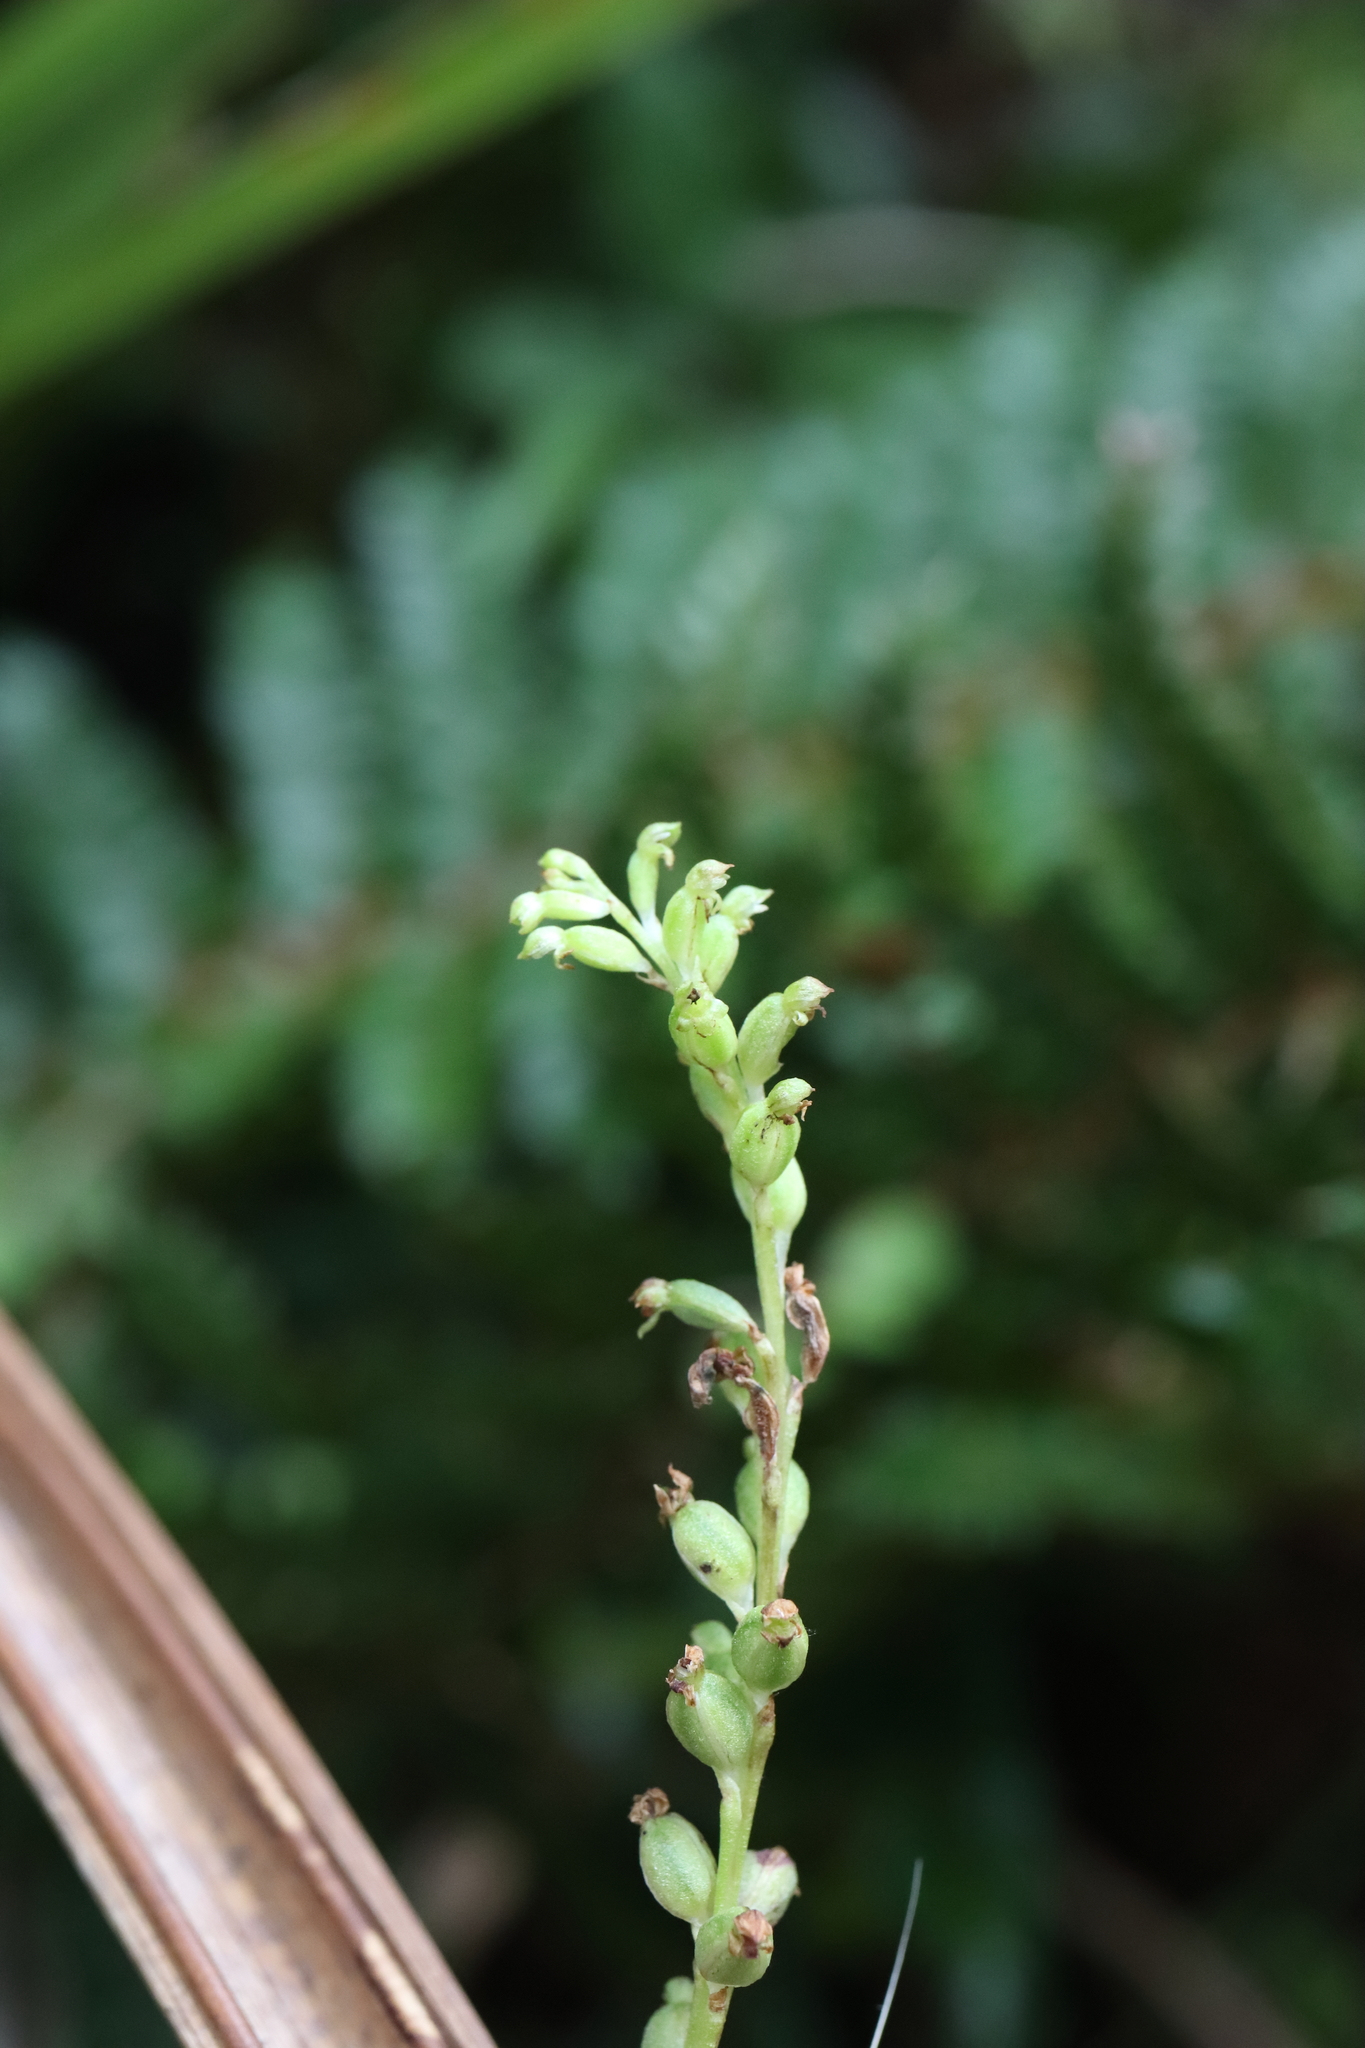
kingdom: Plantae
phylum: Tracheophyta
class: Liliopsida
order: Asparagales
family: Orchidaceae
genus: Microtis
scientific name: Microtis unifolia
